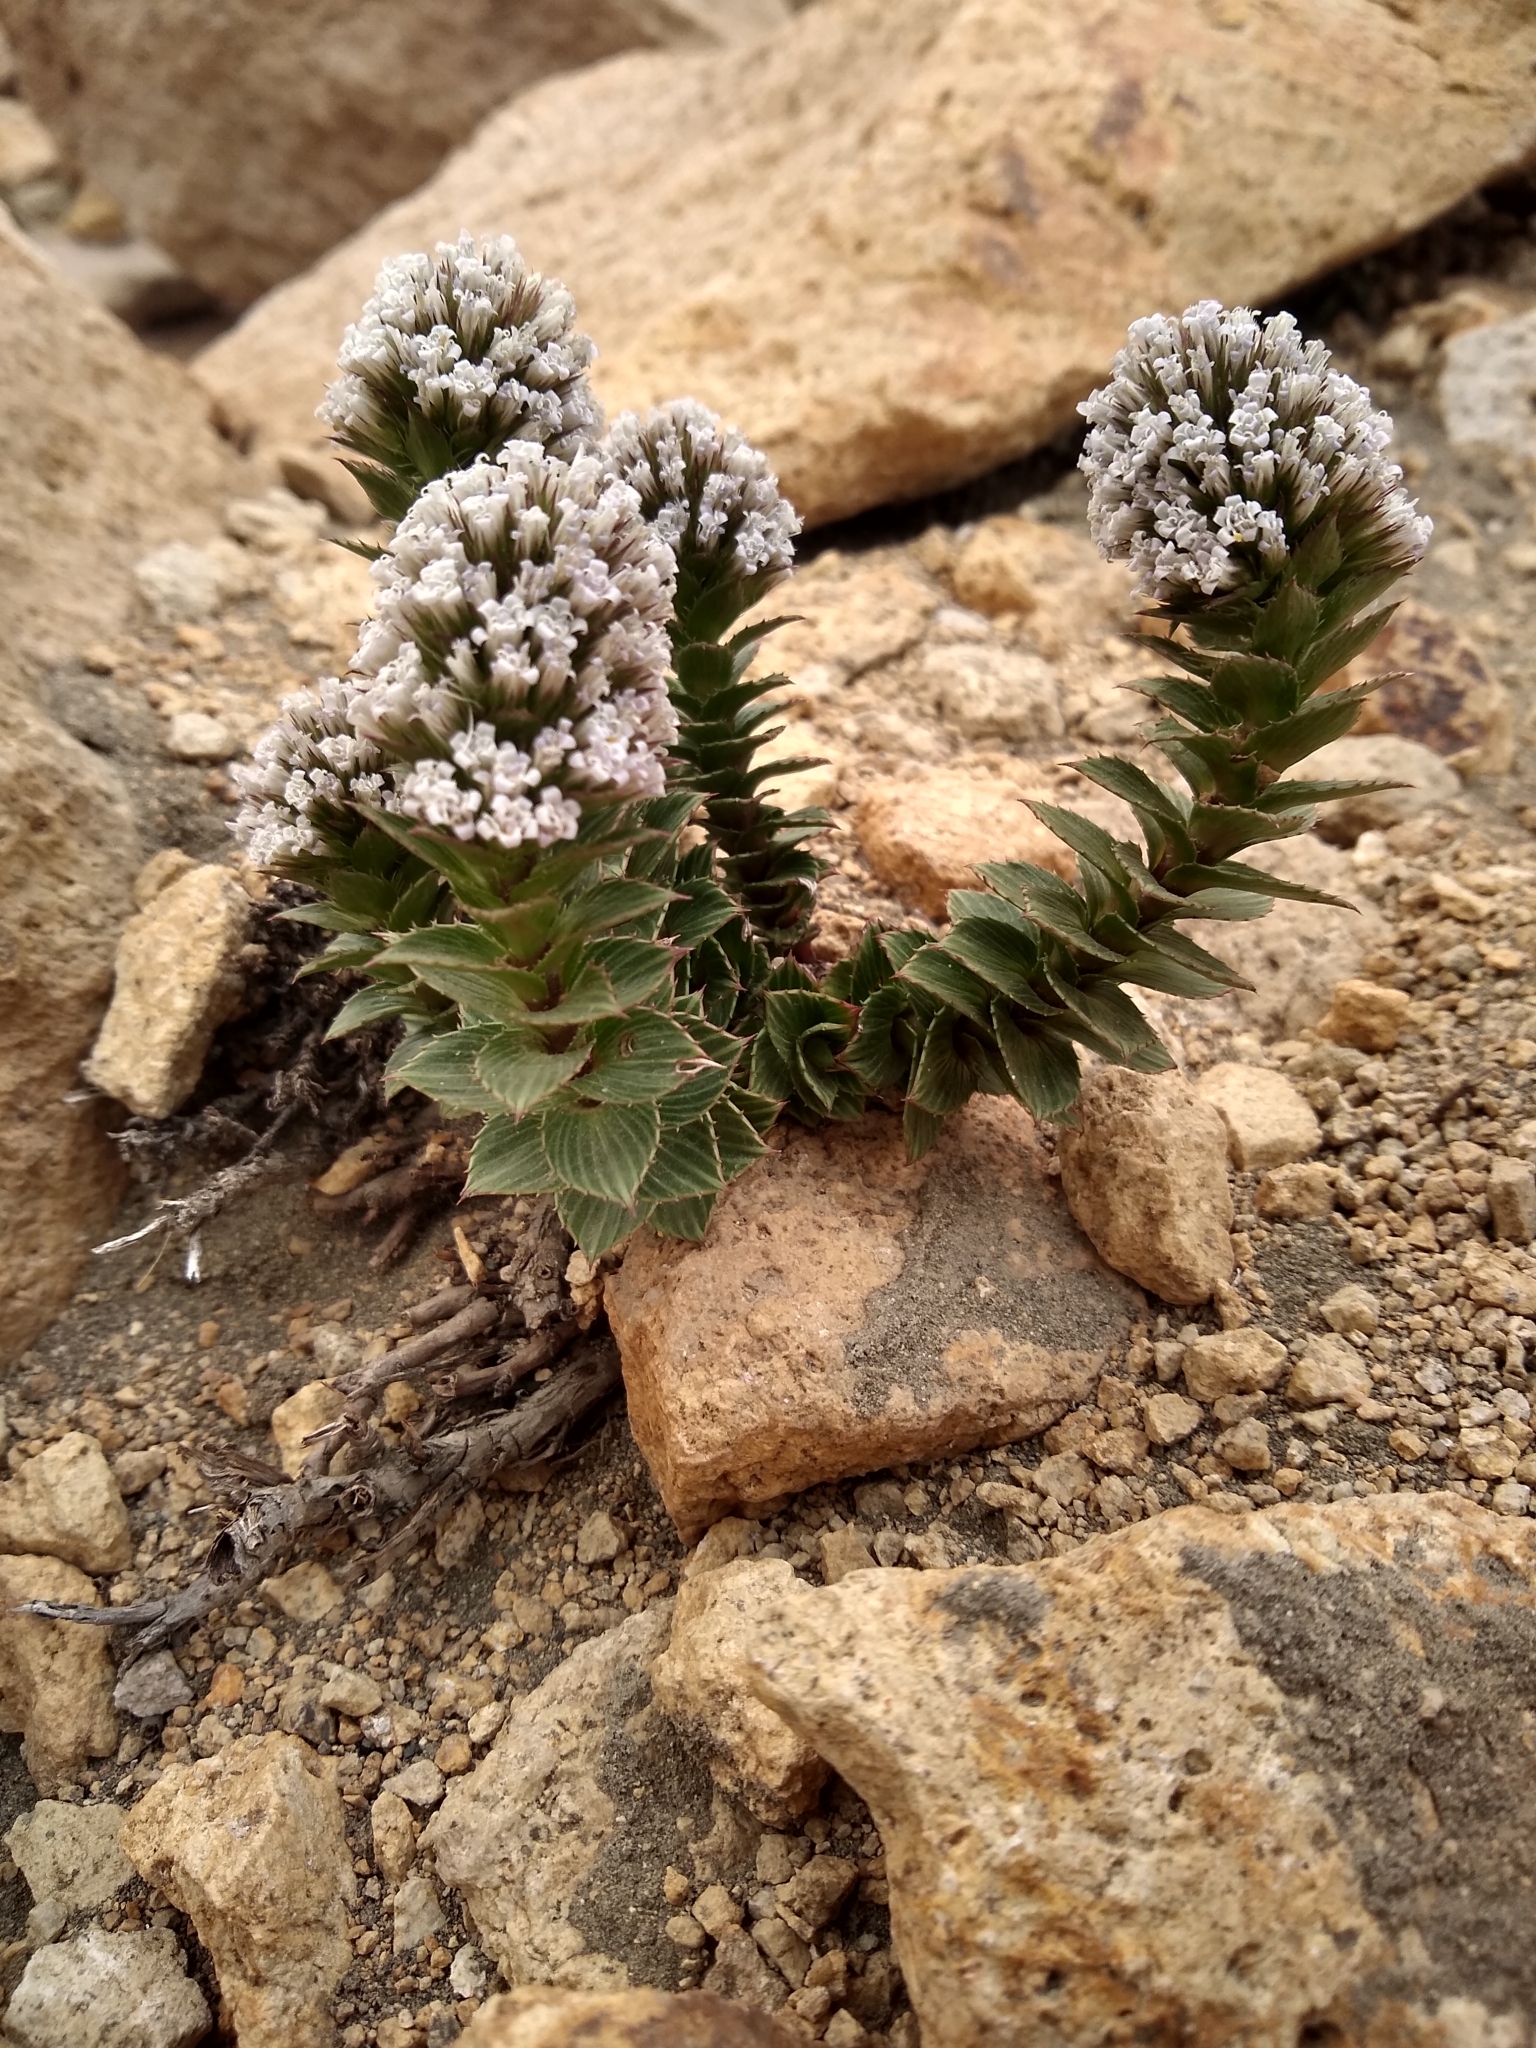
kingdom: Plantae
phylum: Tracheophyta
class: Magnoliopsida
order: Asterales
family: Asteraceae
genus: Nassauvia
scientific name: Nassauvia pulcherrima
